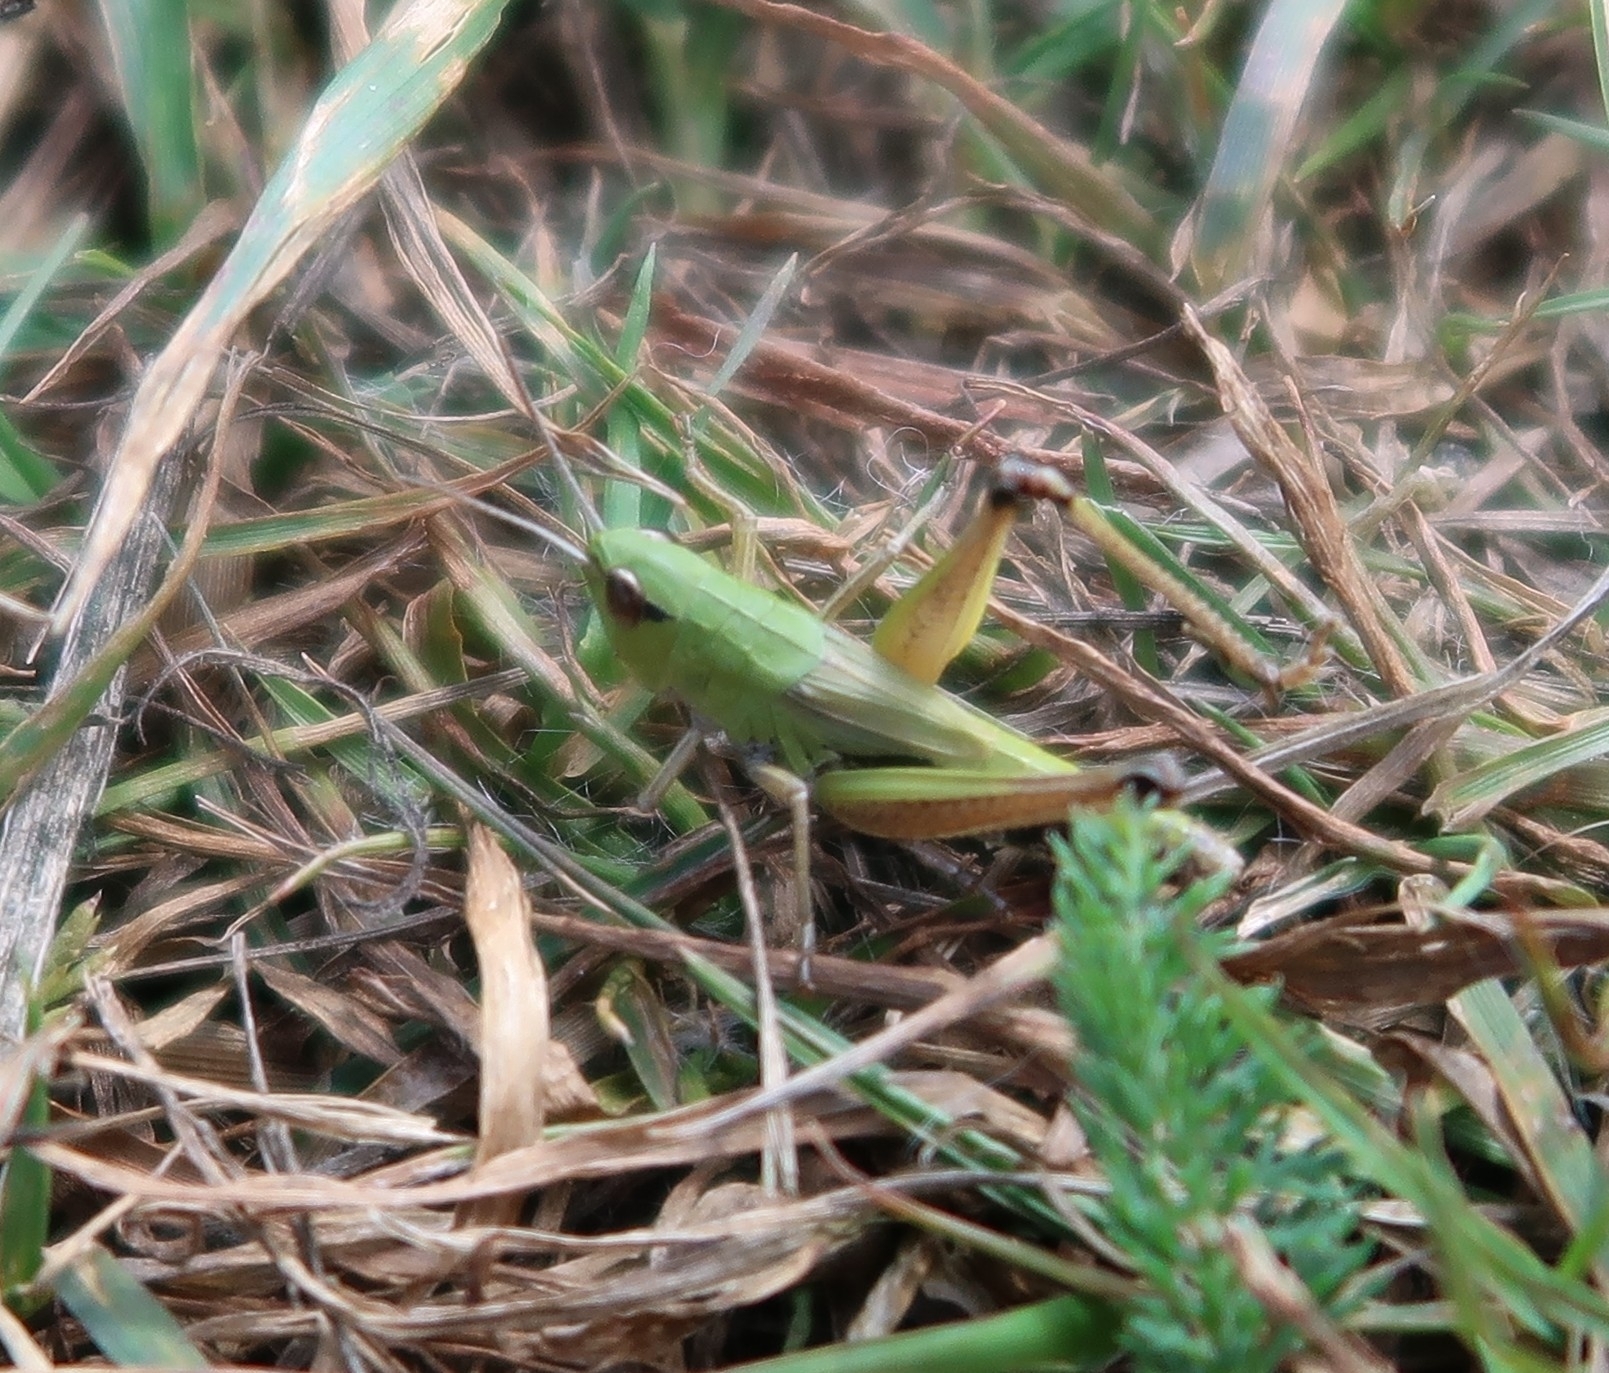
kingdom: Animalia
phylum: Arthropoda
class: Insecta
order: Orthoptera
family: Acrididae
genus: Pseudochorthippus
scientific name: Pseudochorthippus parallelus
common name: Meadow grasshopper
